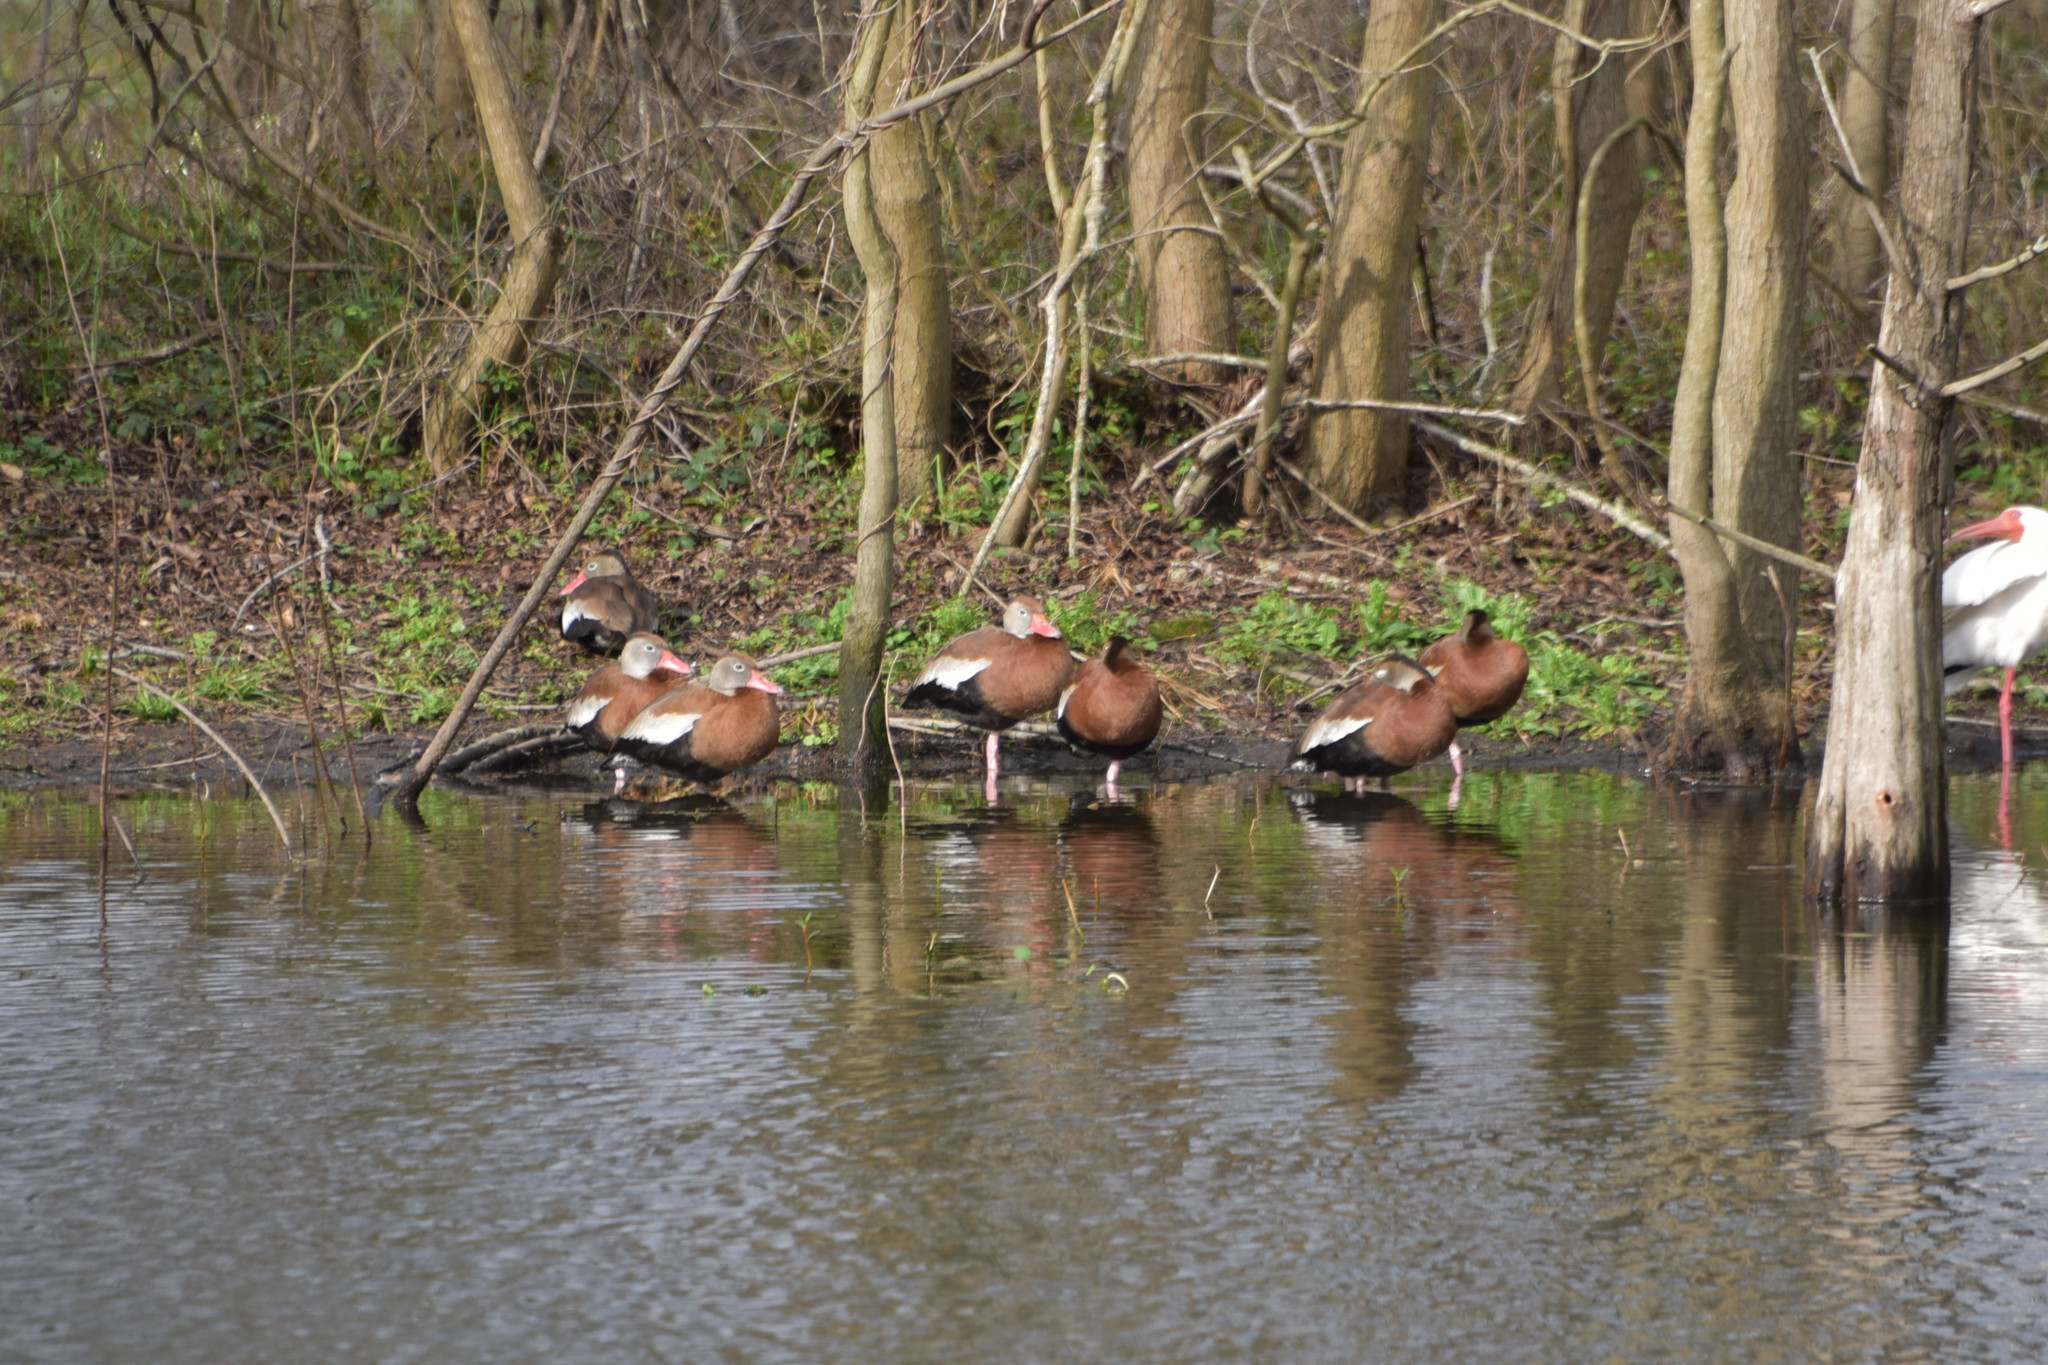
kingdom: Animalia
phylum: Chordata
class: Aves
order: Anseriformes
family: Anatidae
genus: Dendrocygna
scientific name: Dendrocygna autumnalis
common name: Black-bellied whistling duck
